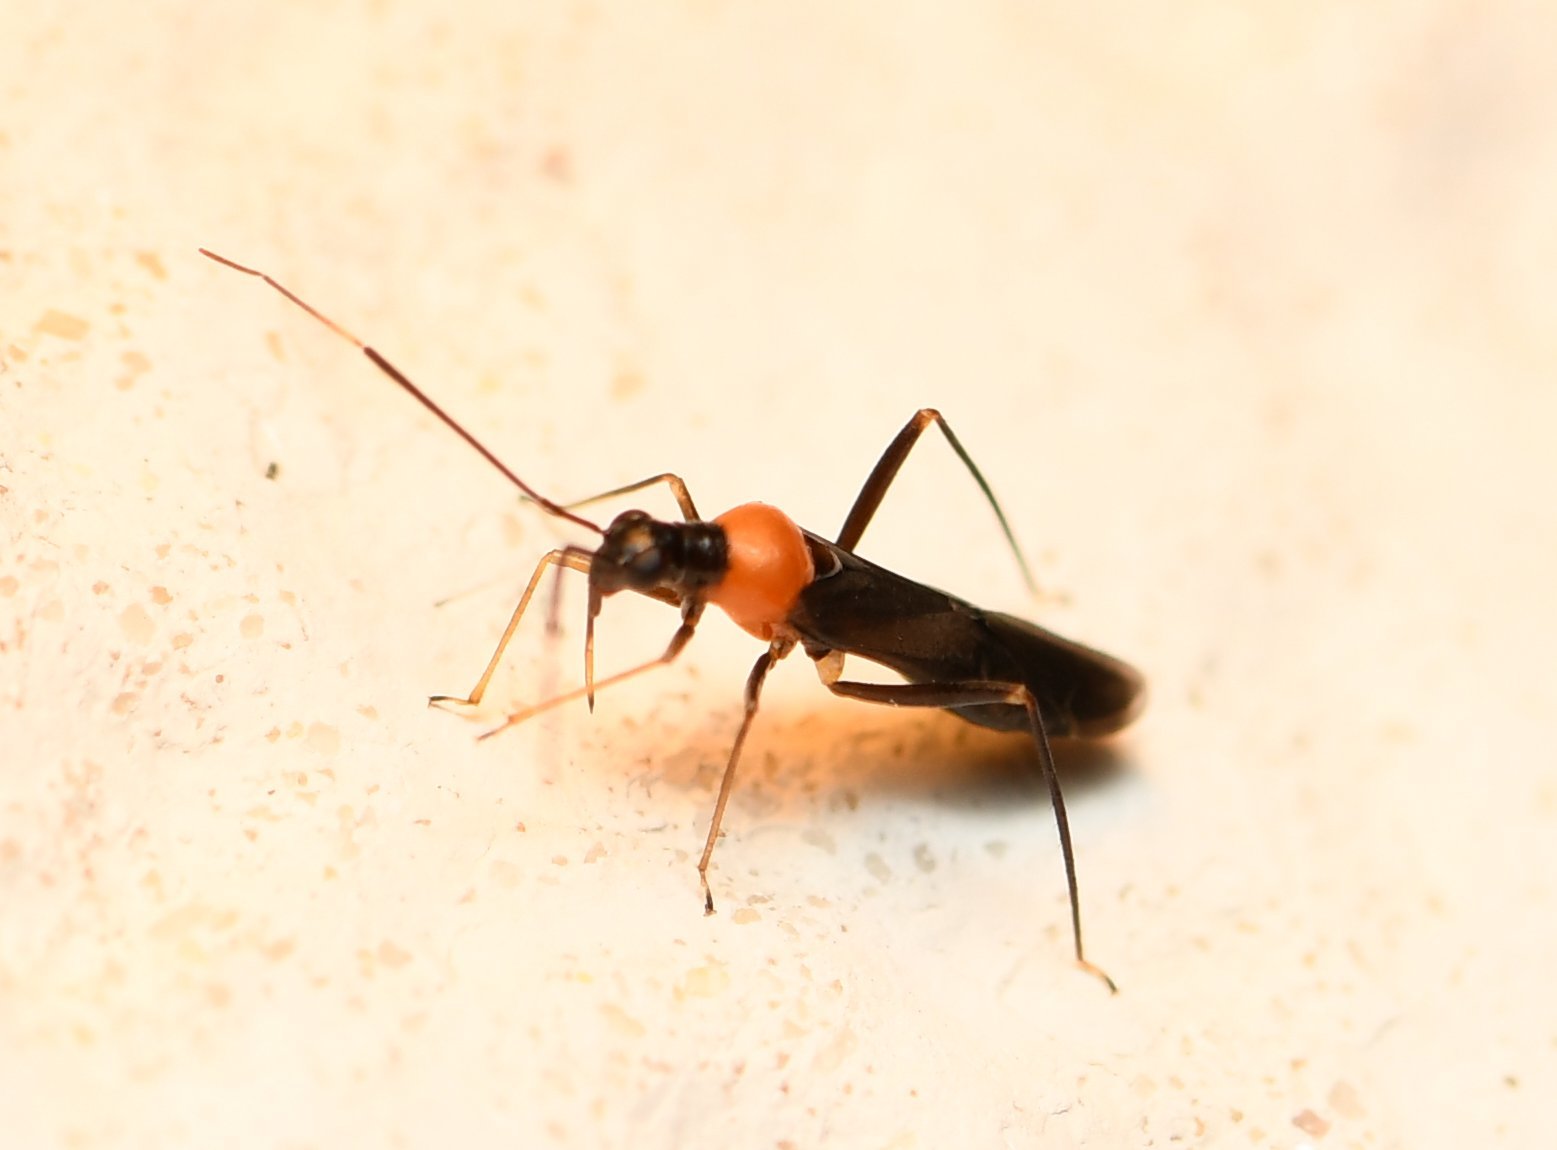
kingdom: Animalia
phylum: Arthropoda
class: Insecta
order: Hemiptera
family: Miridae
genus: Pseudoxenetus
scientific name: Pseudoxenetus regalis
